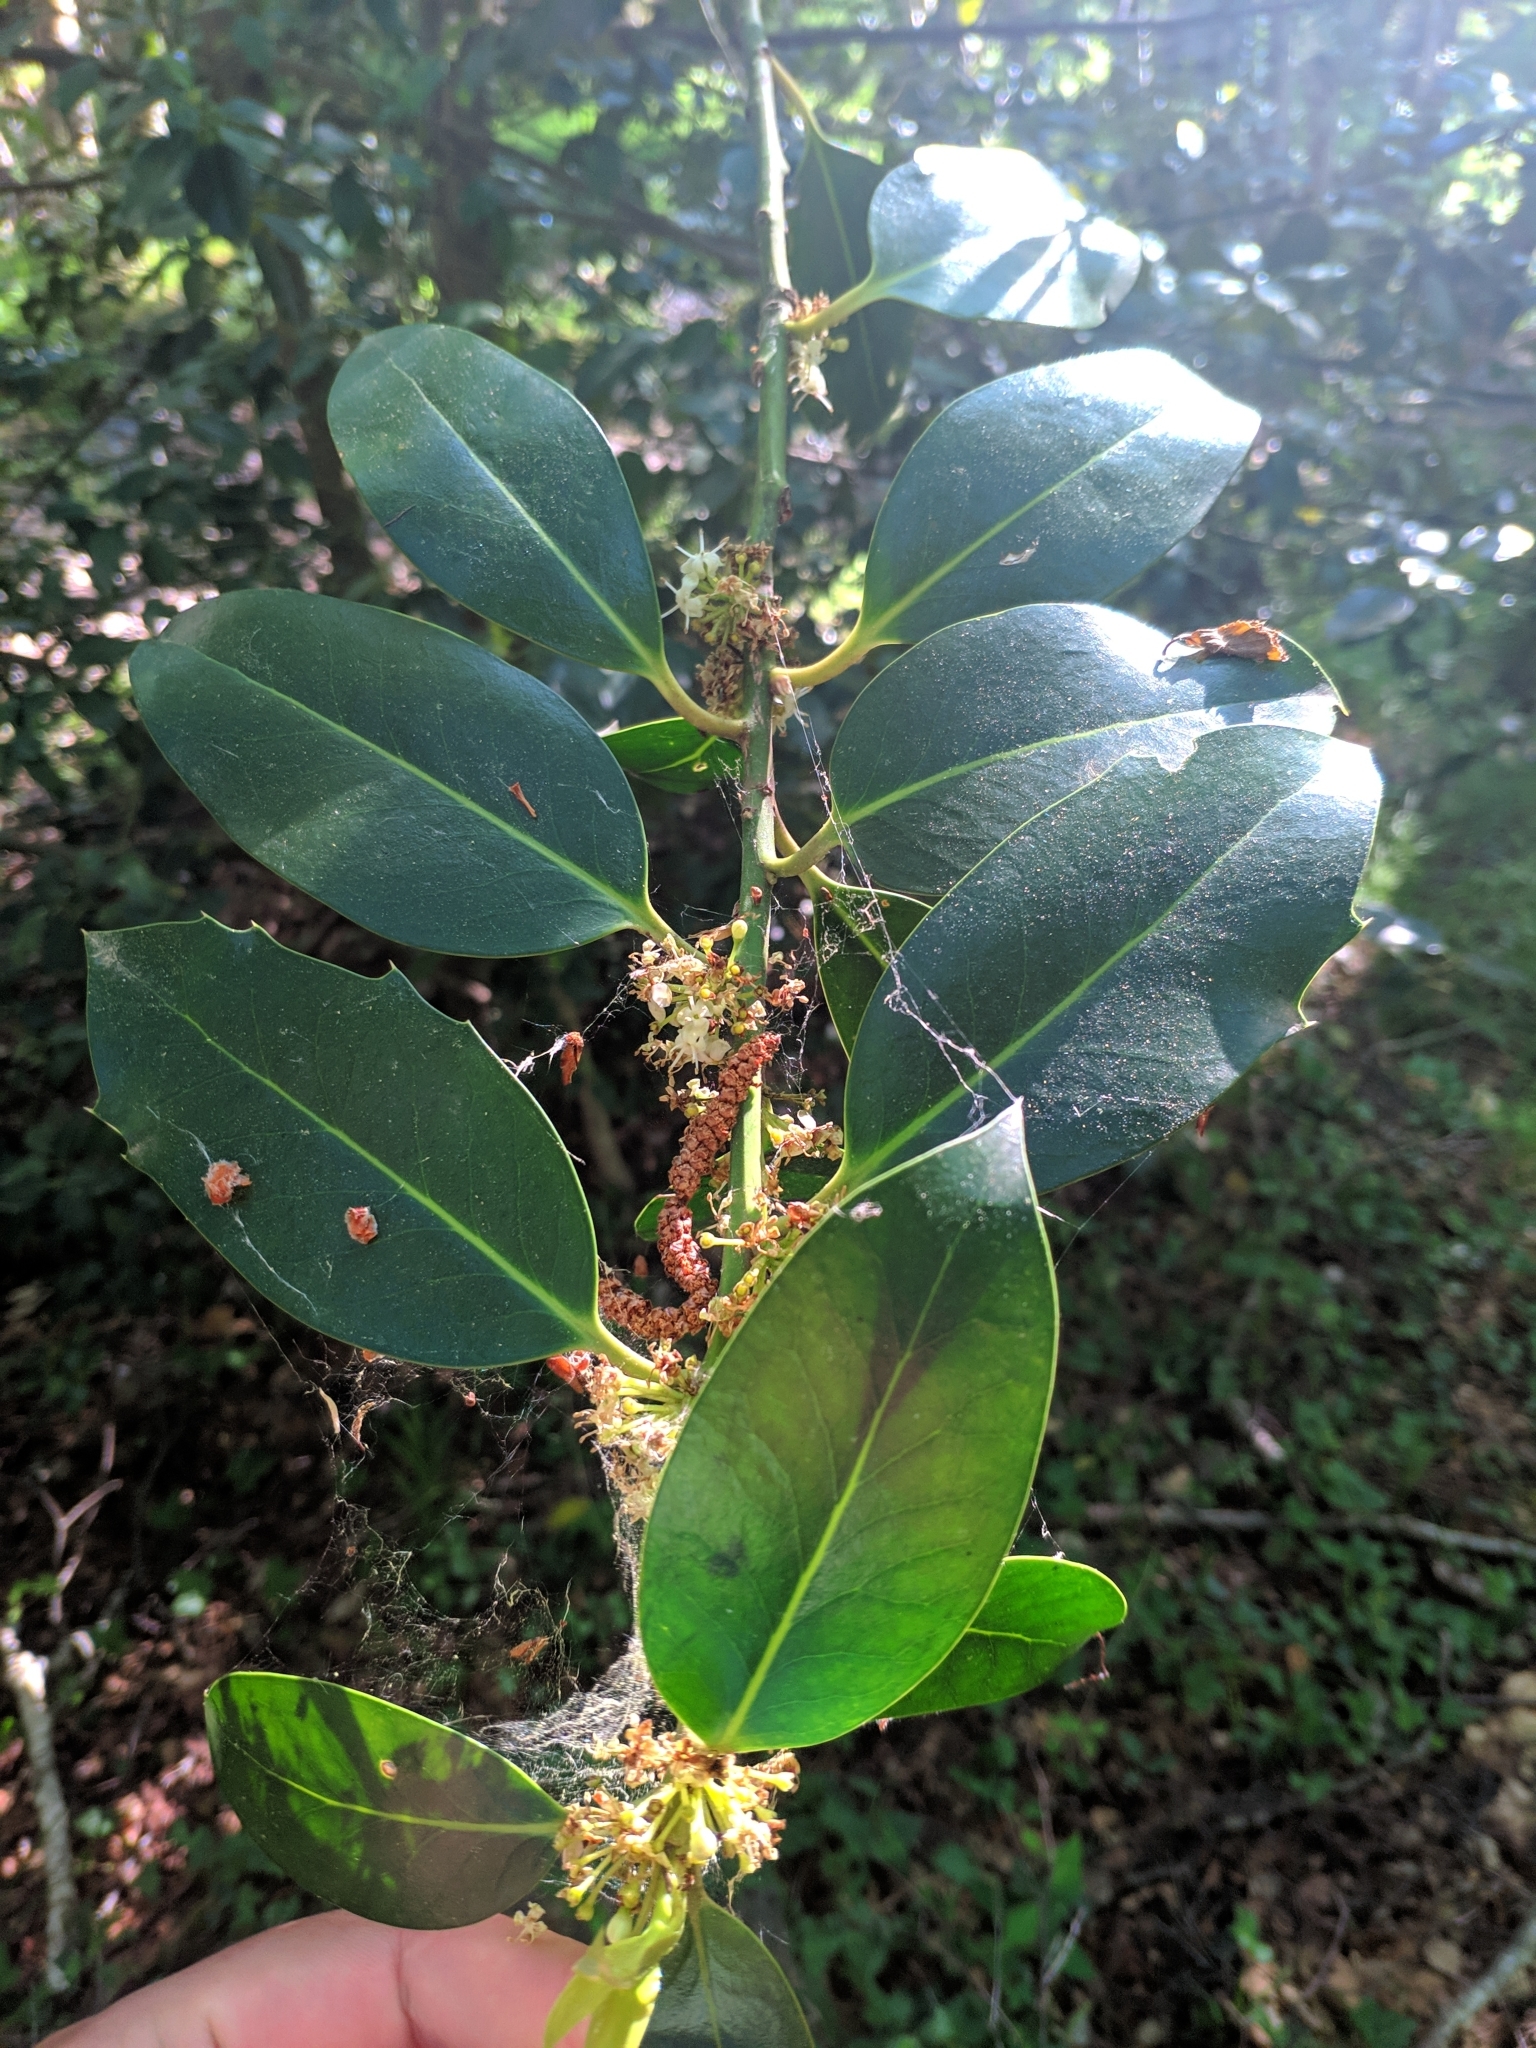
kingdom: Plantae
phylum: Tracheophyta
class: Magnoliopsida
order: Aquifoliales
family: Aquifoliaceae
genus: Ilex
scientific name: Ilex aquifolium
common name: English holly
